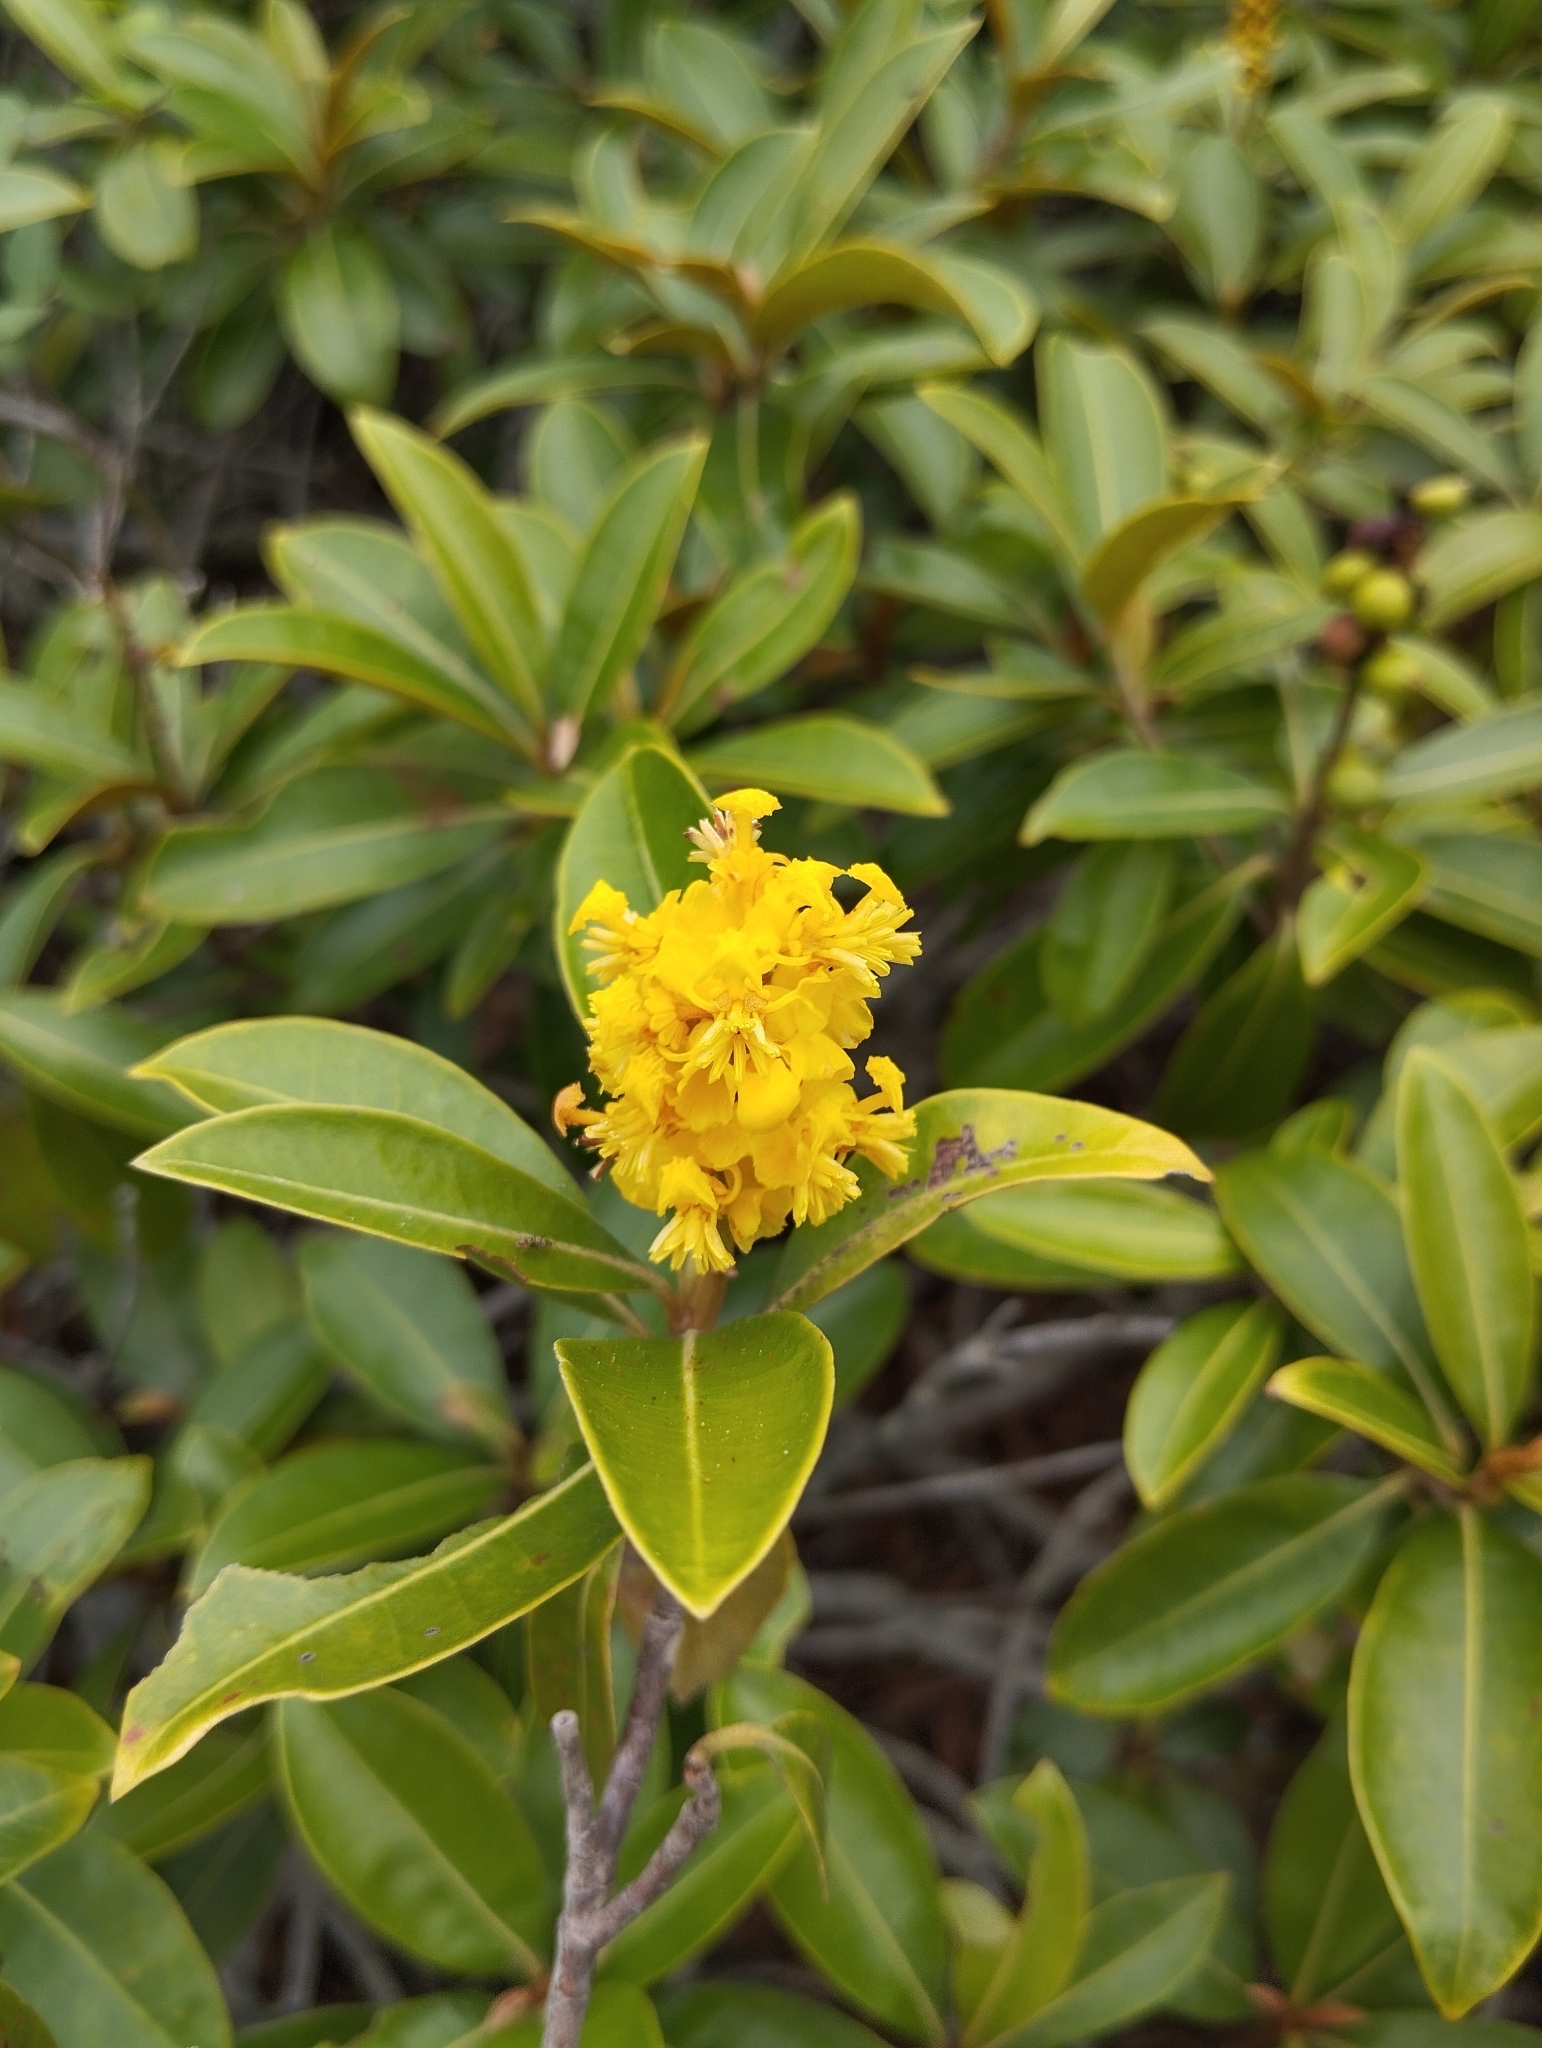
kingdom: Plantae
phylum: Tracheophyta
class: Magnoliopsida
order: Malpighiales
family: Malpighiaceae
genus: Byrsonima
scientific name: Byrsonima crassifolia
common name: Golden spoon
